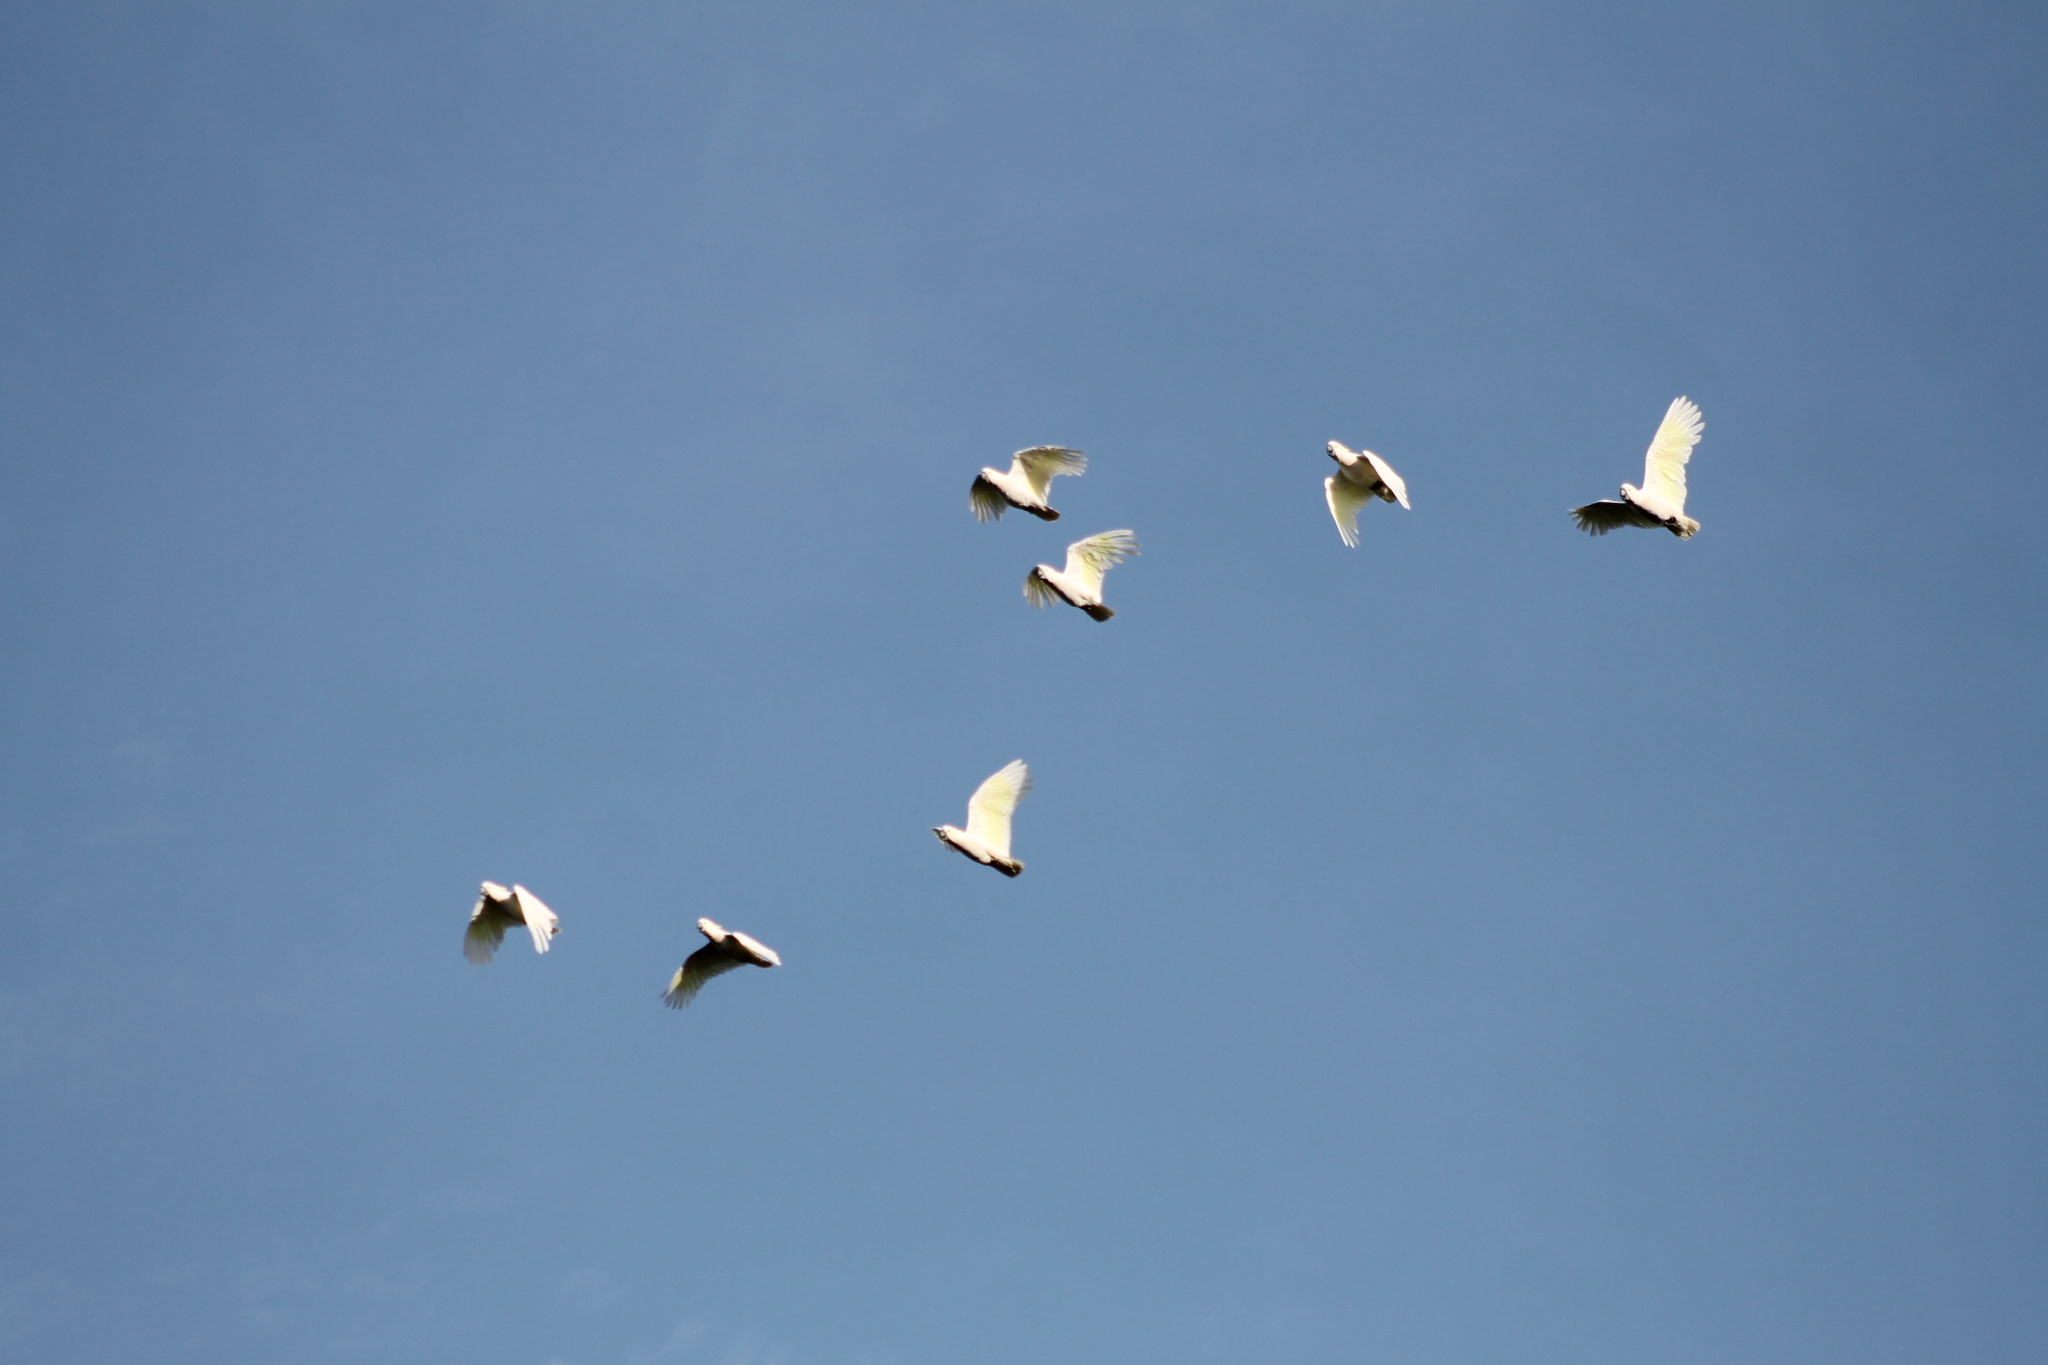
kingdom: Animalia
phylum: Chordata
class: Aves
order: Psittaciformes
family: Psittacidae
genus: Cacatua
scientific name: Cacatua galerita
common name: Sulphur-crested cockatoo
